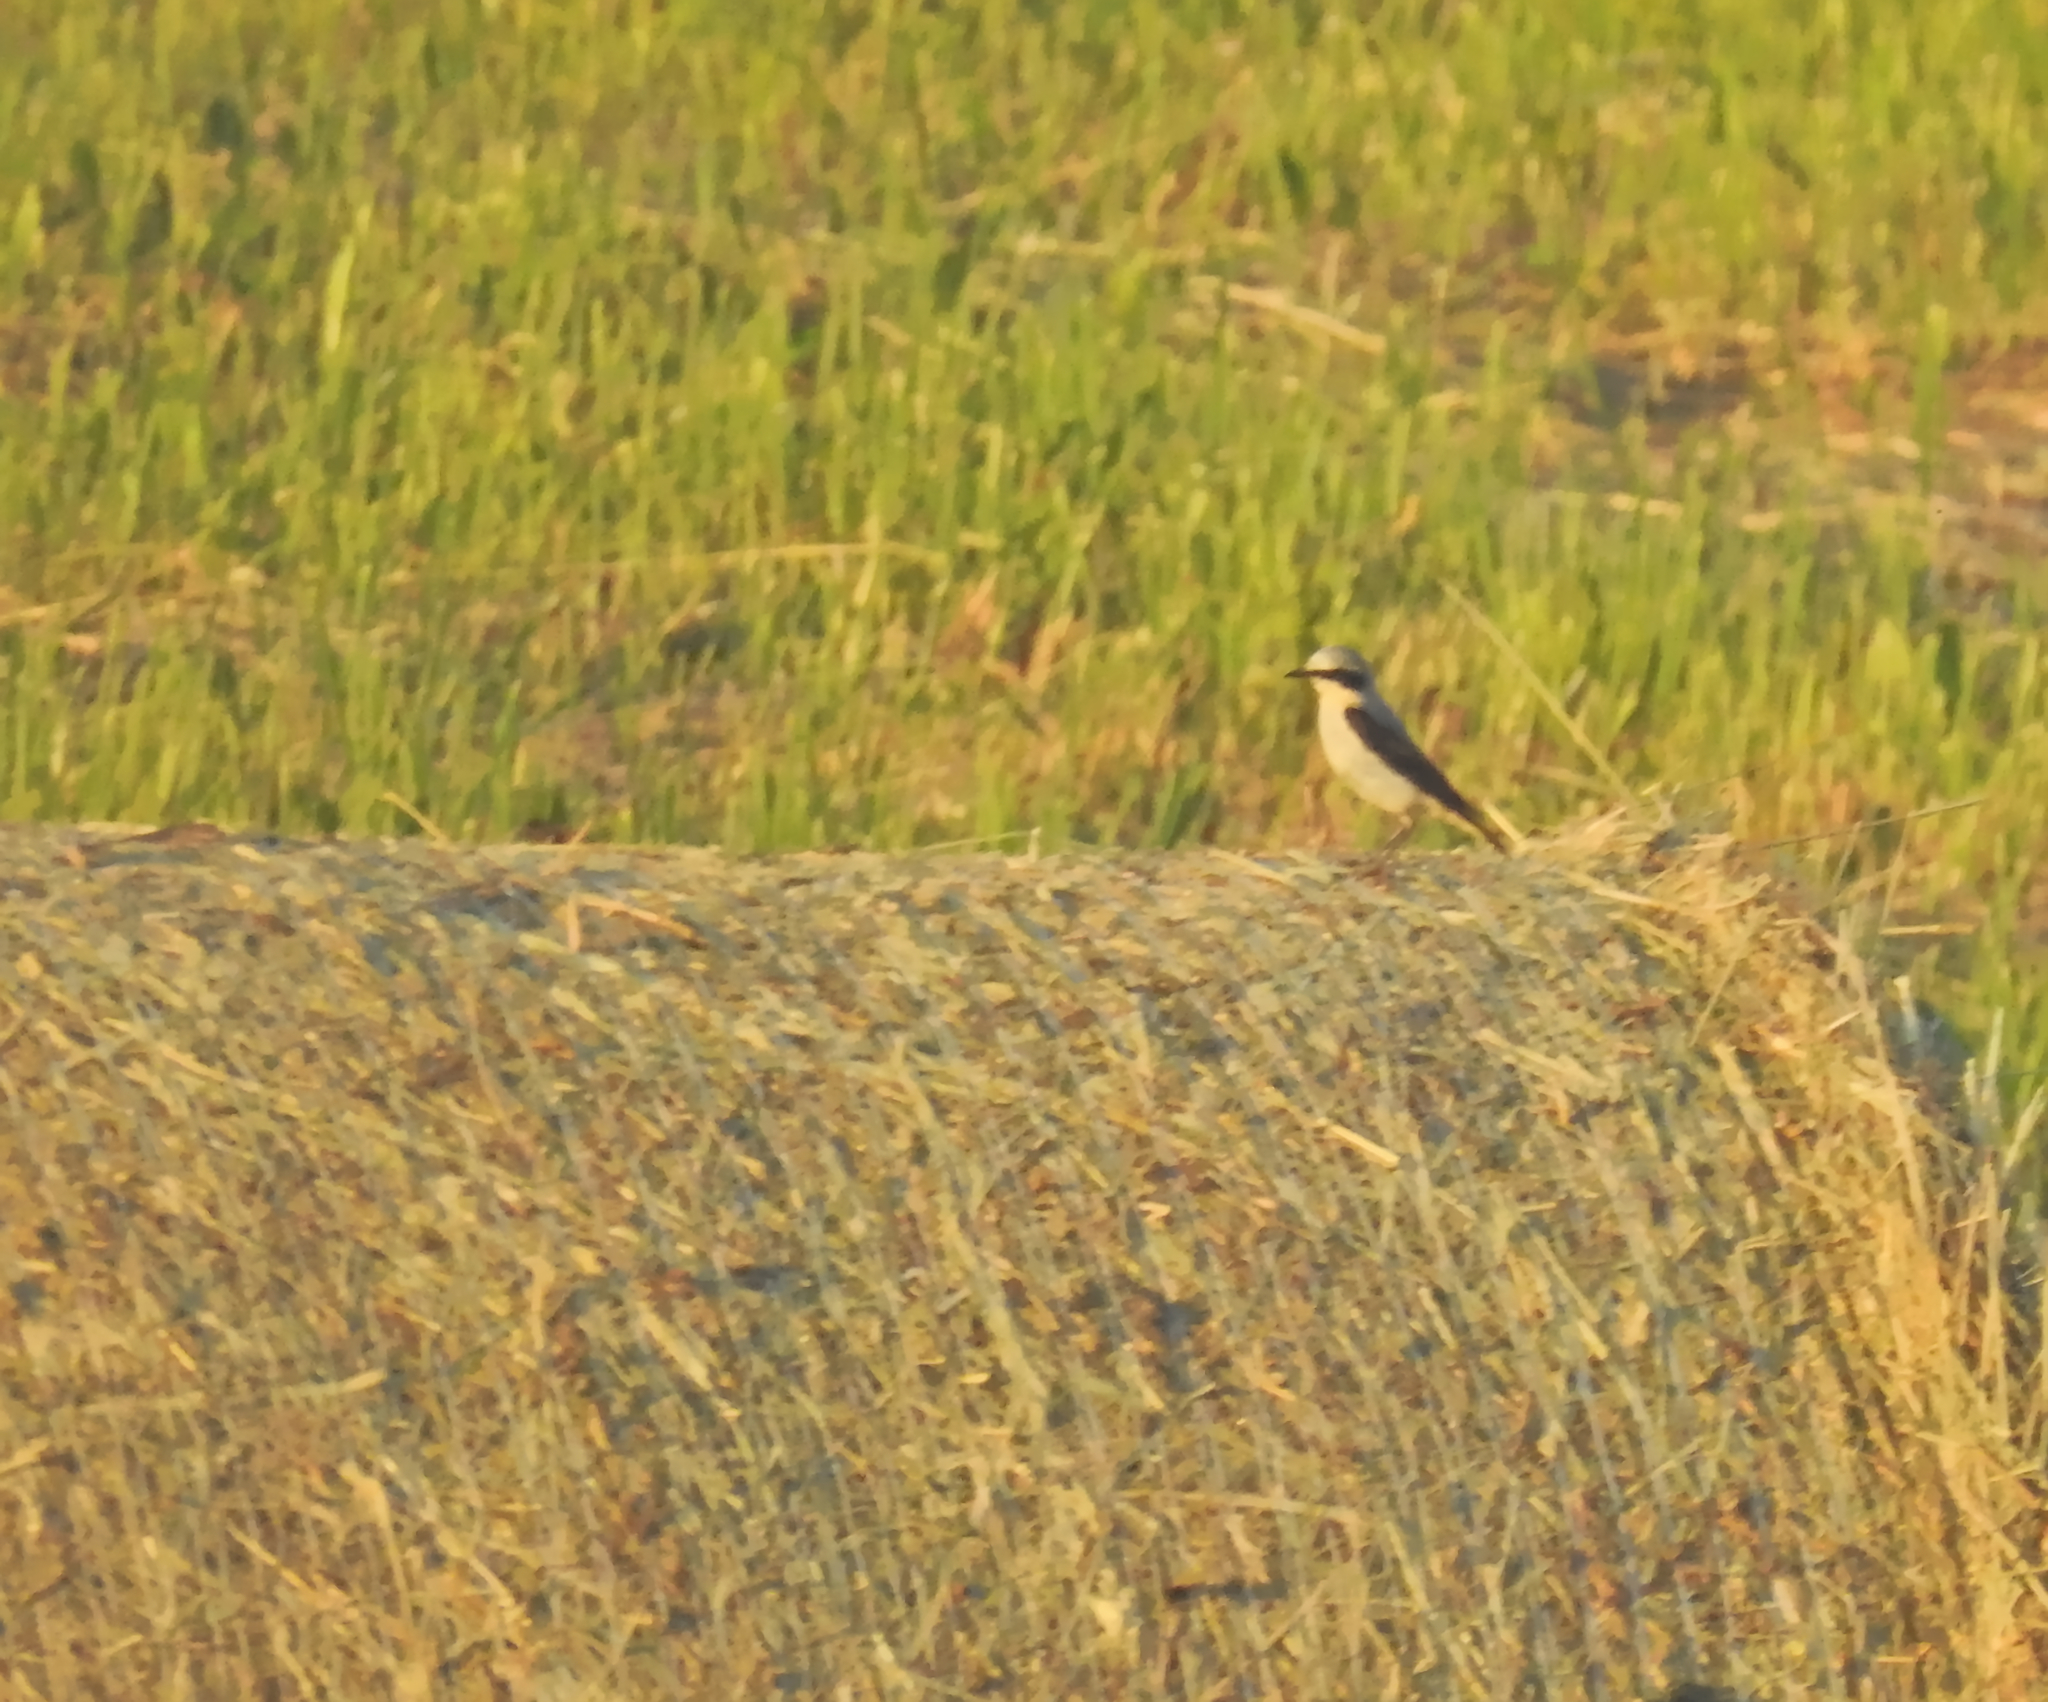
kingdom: Animalia
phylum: Chordata
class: Aves
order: Passeriformes
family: Muscicapidae
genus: Oenanthe
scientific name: Oenanthe oenanthe
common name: Northern wheatear
